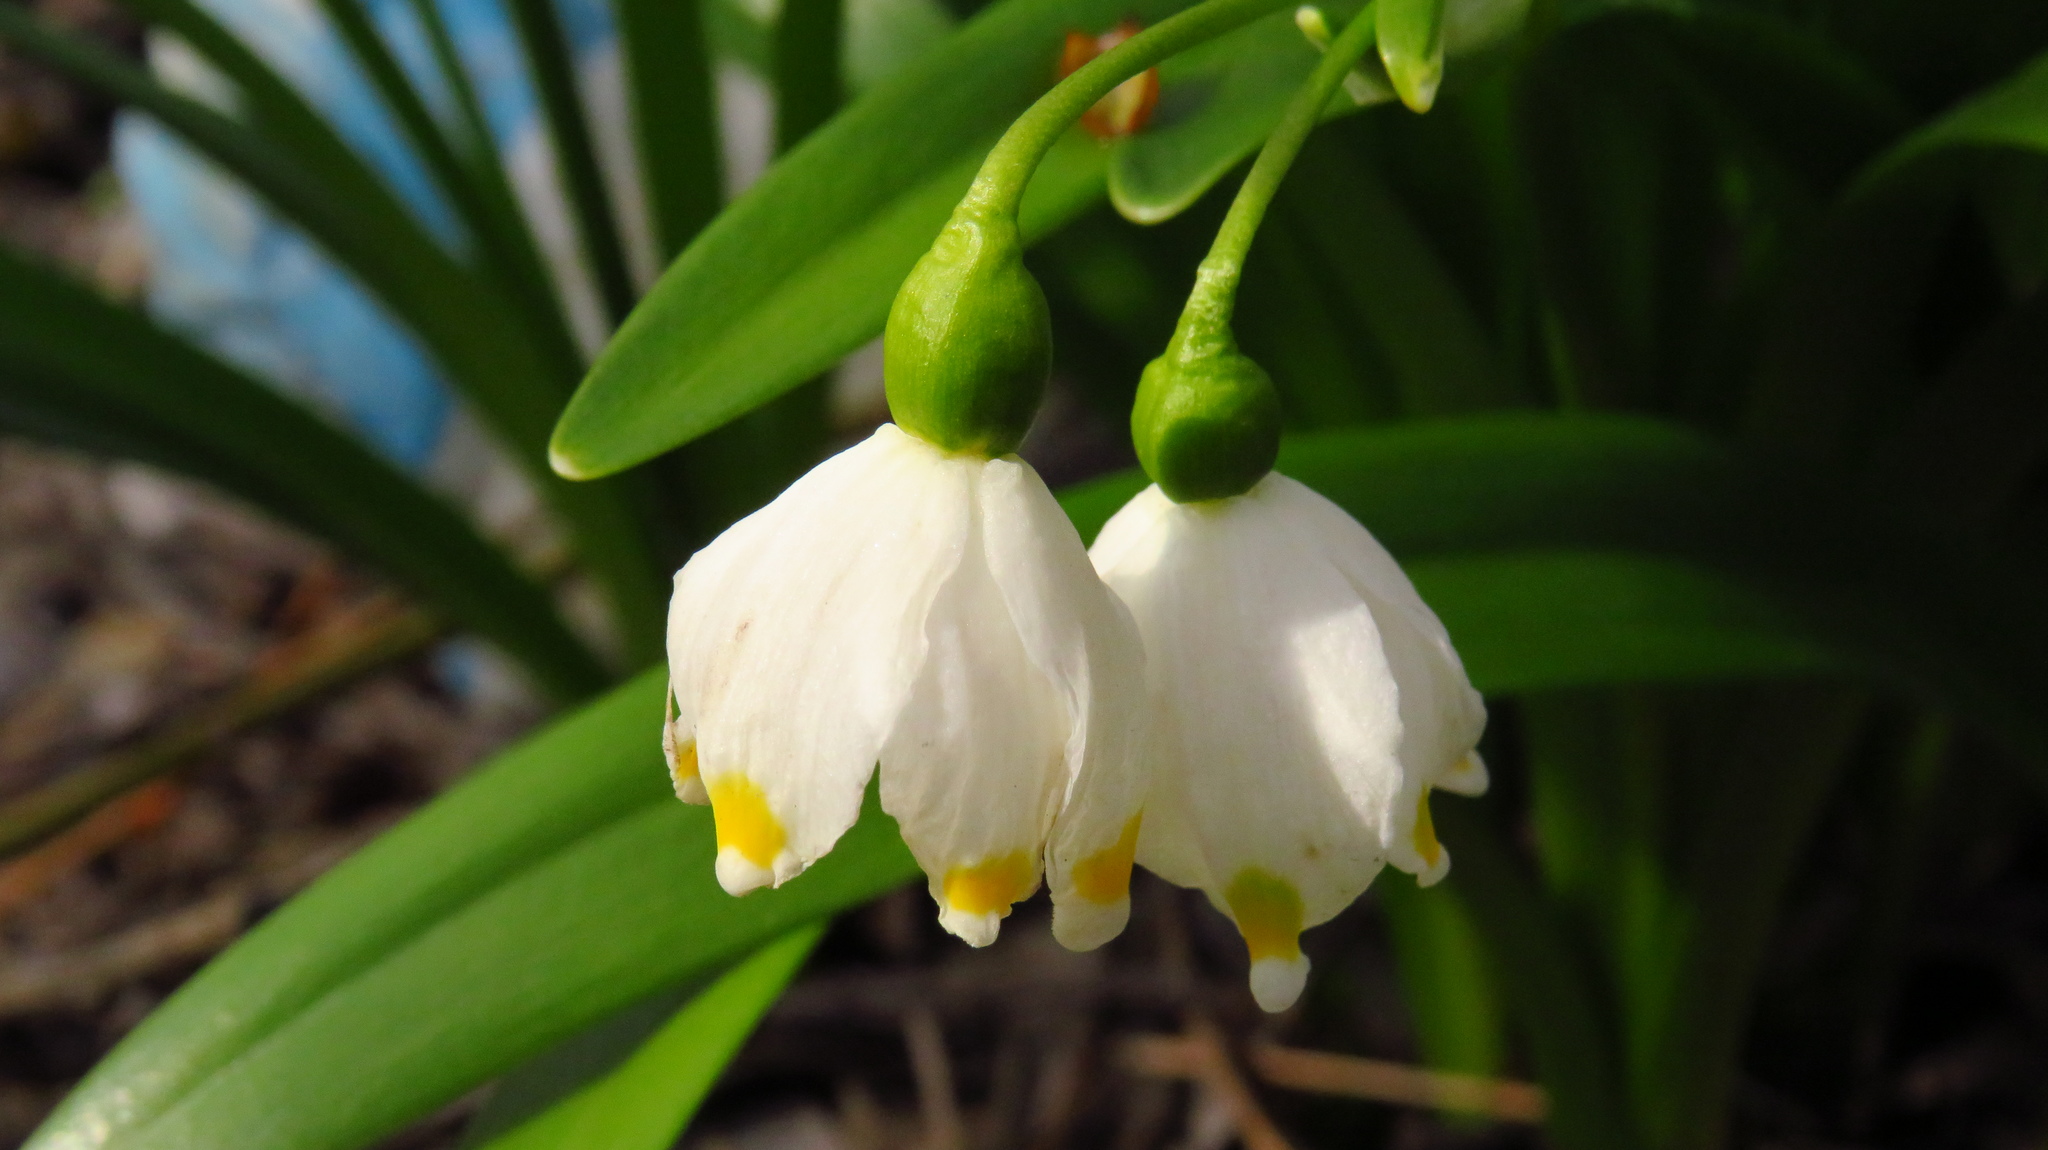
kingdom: Plantae
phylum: Tracheophyta
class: Liliopsida
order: Asparagales
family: Amaryllidaceae
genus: Leucojum
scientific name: Leucojum vernum
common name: Spring snowflake
